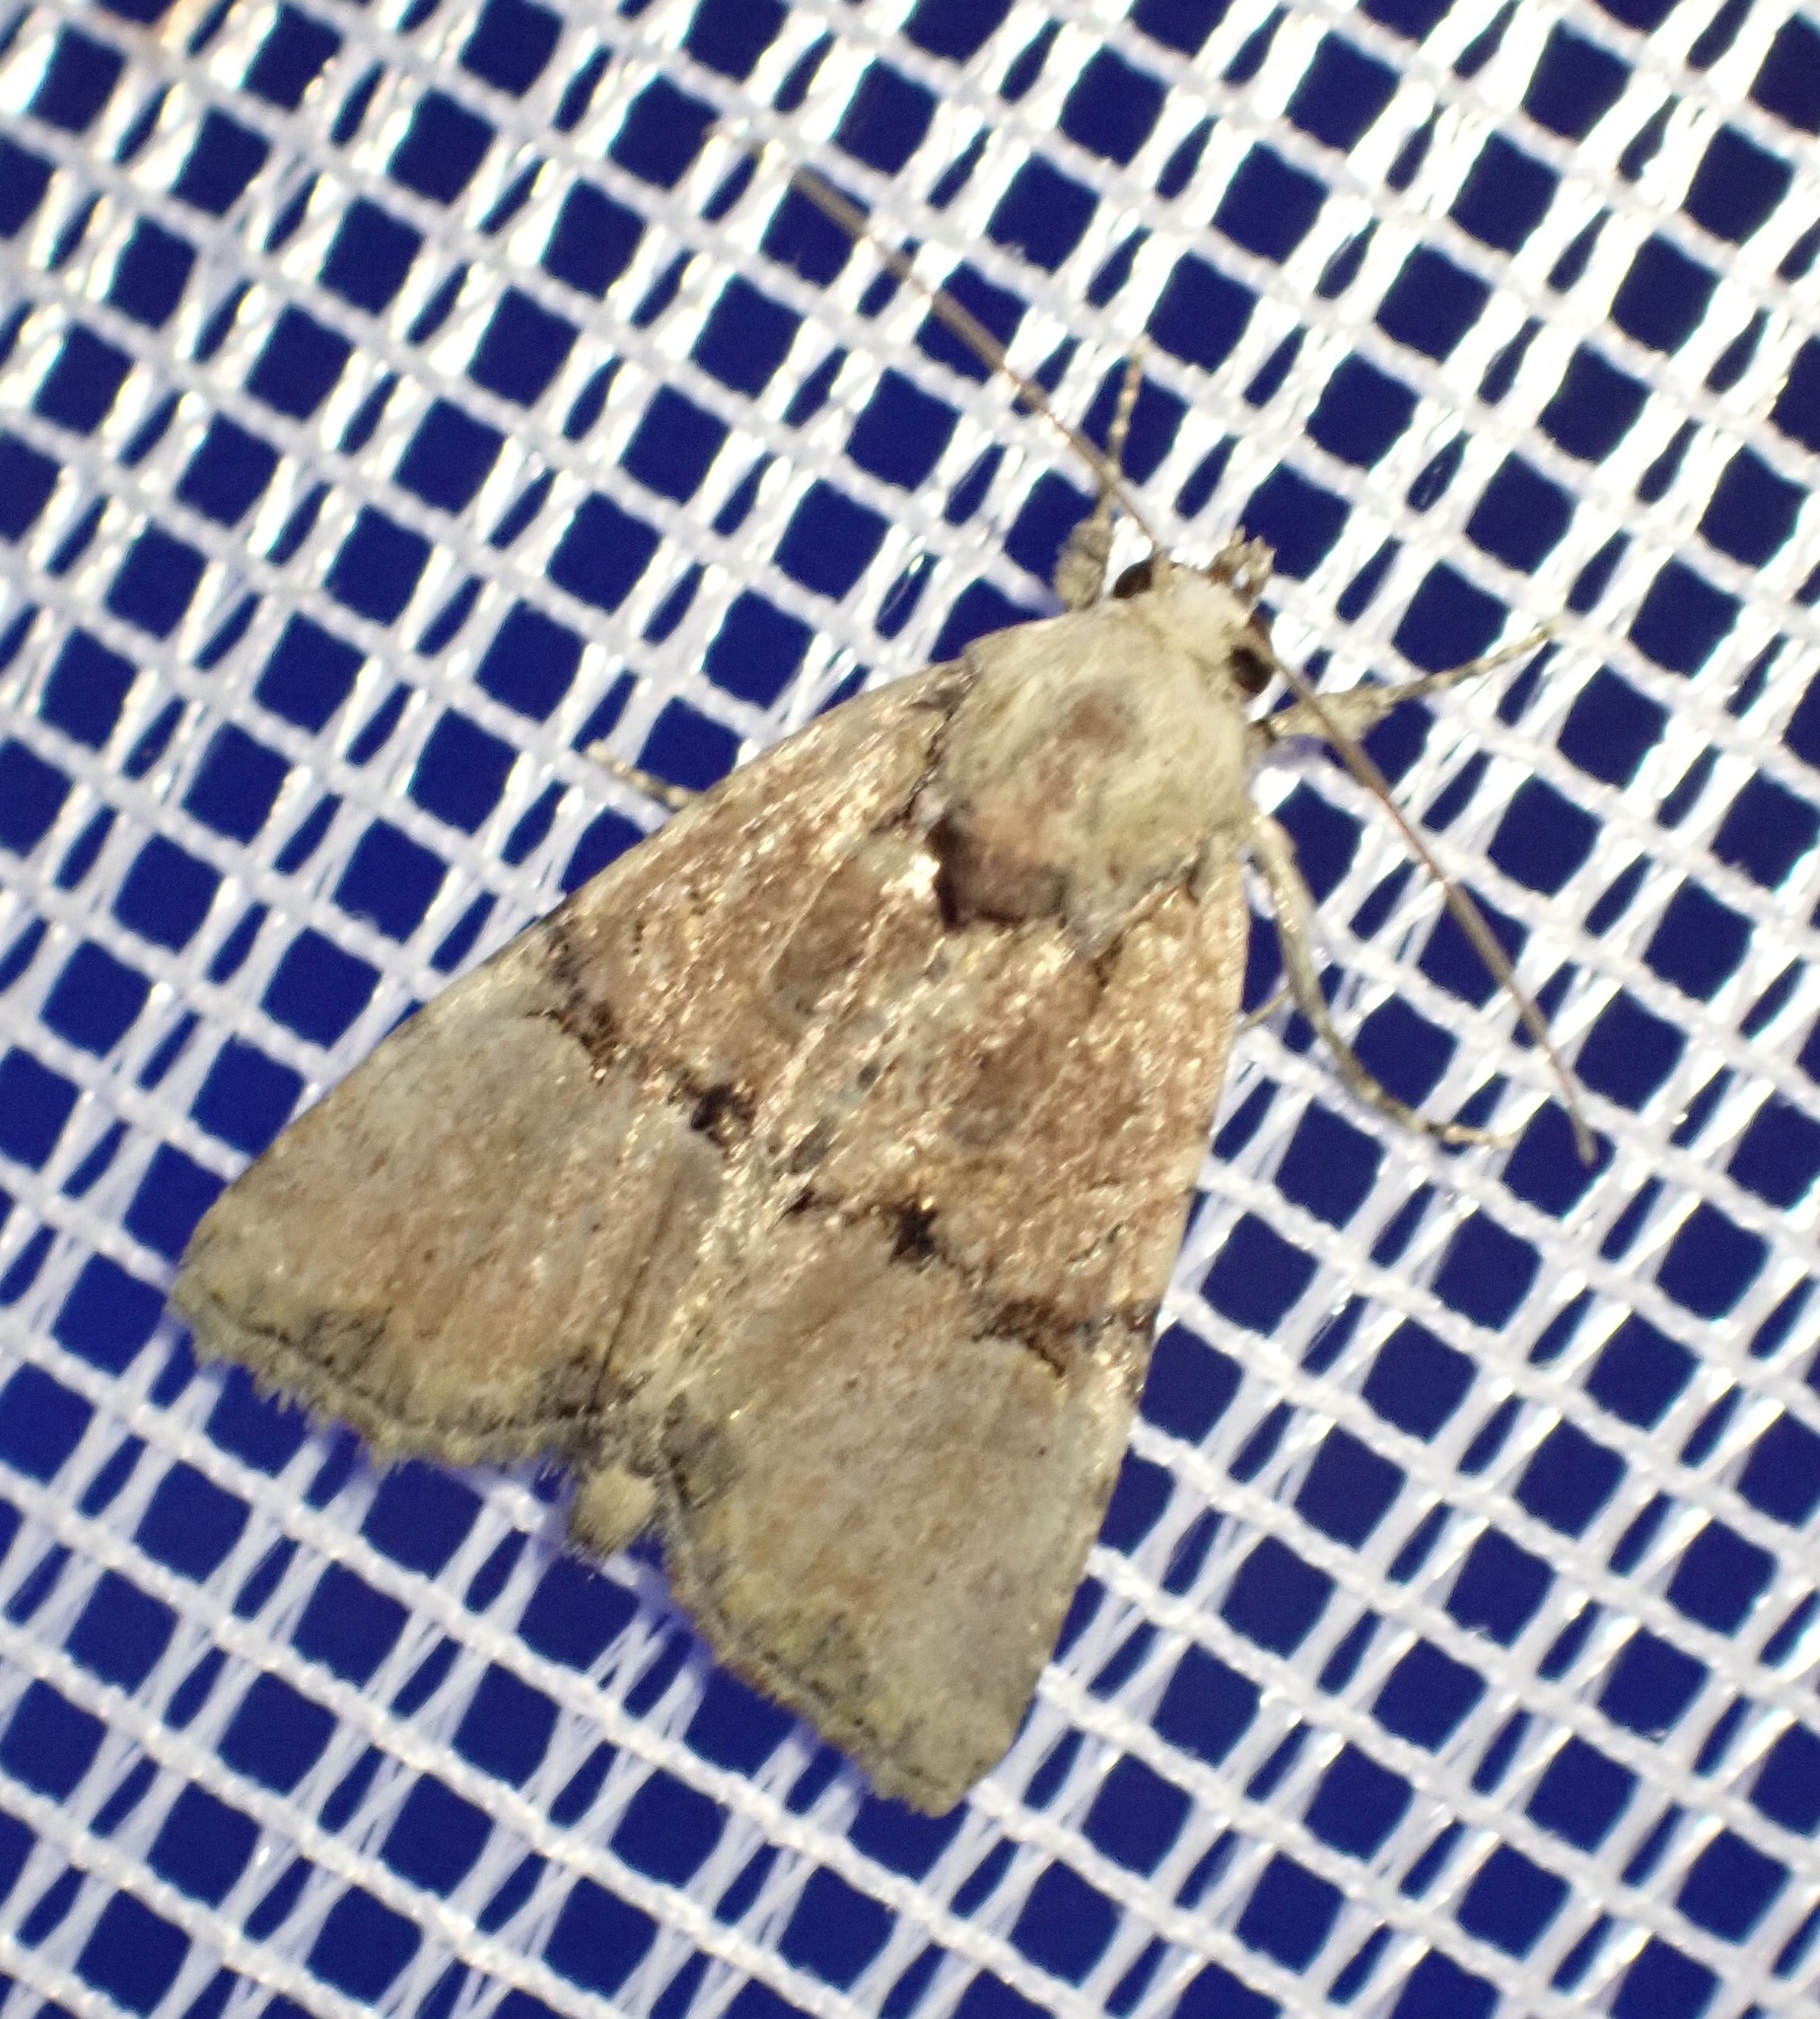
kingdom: Animalia
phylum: Arthropoda
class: Insecta
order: Lepidoptera
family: Noctuidae
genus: Mesoligia
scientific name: Mesoligia furuncula
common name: Cloaked minor
